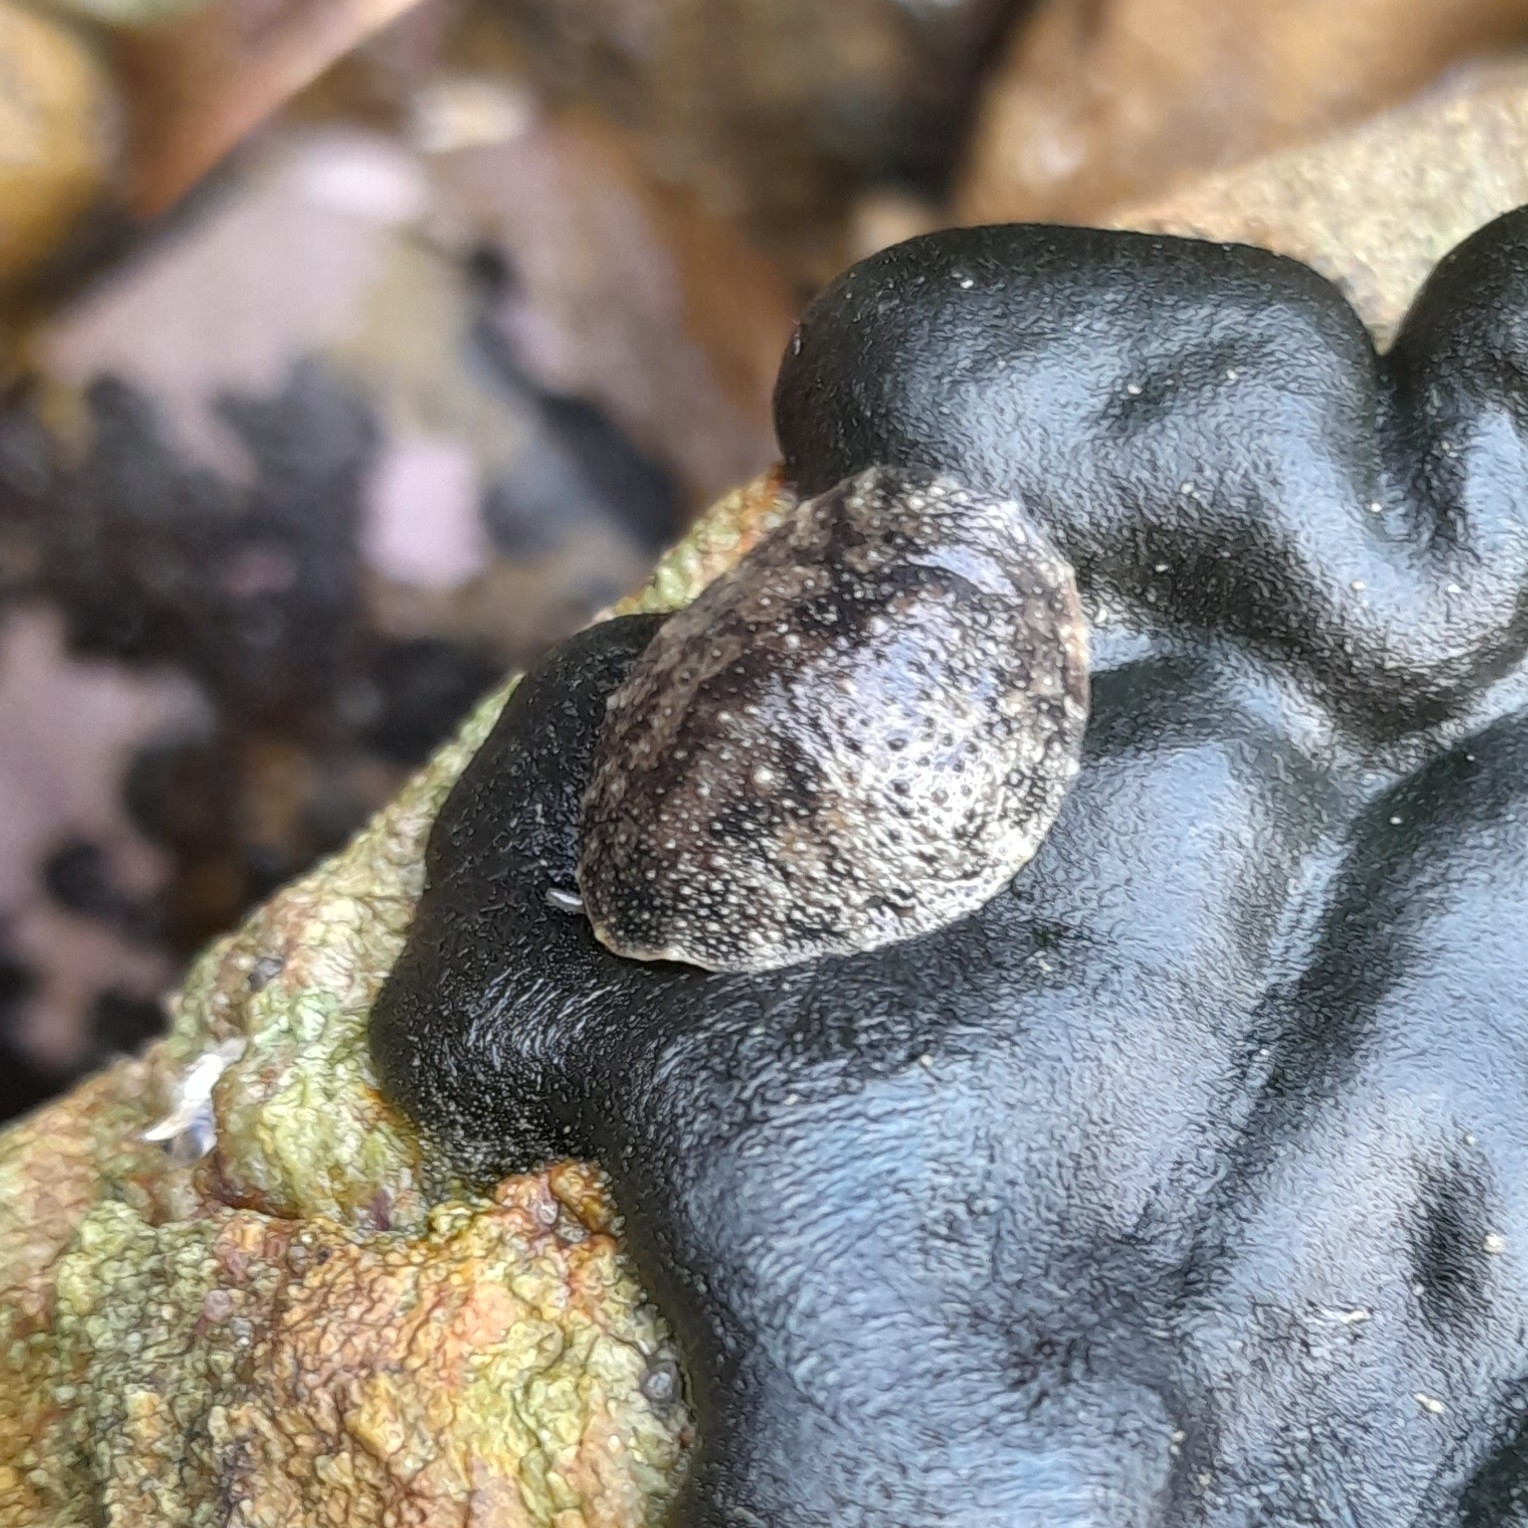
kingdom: Animalia
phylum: Mollusca
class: Gastropoda
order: Systellommatophora
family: Onchidiidae
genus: Onchidella
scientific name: Onchidella nigricans
